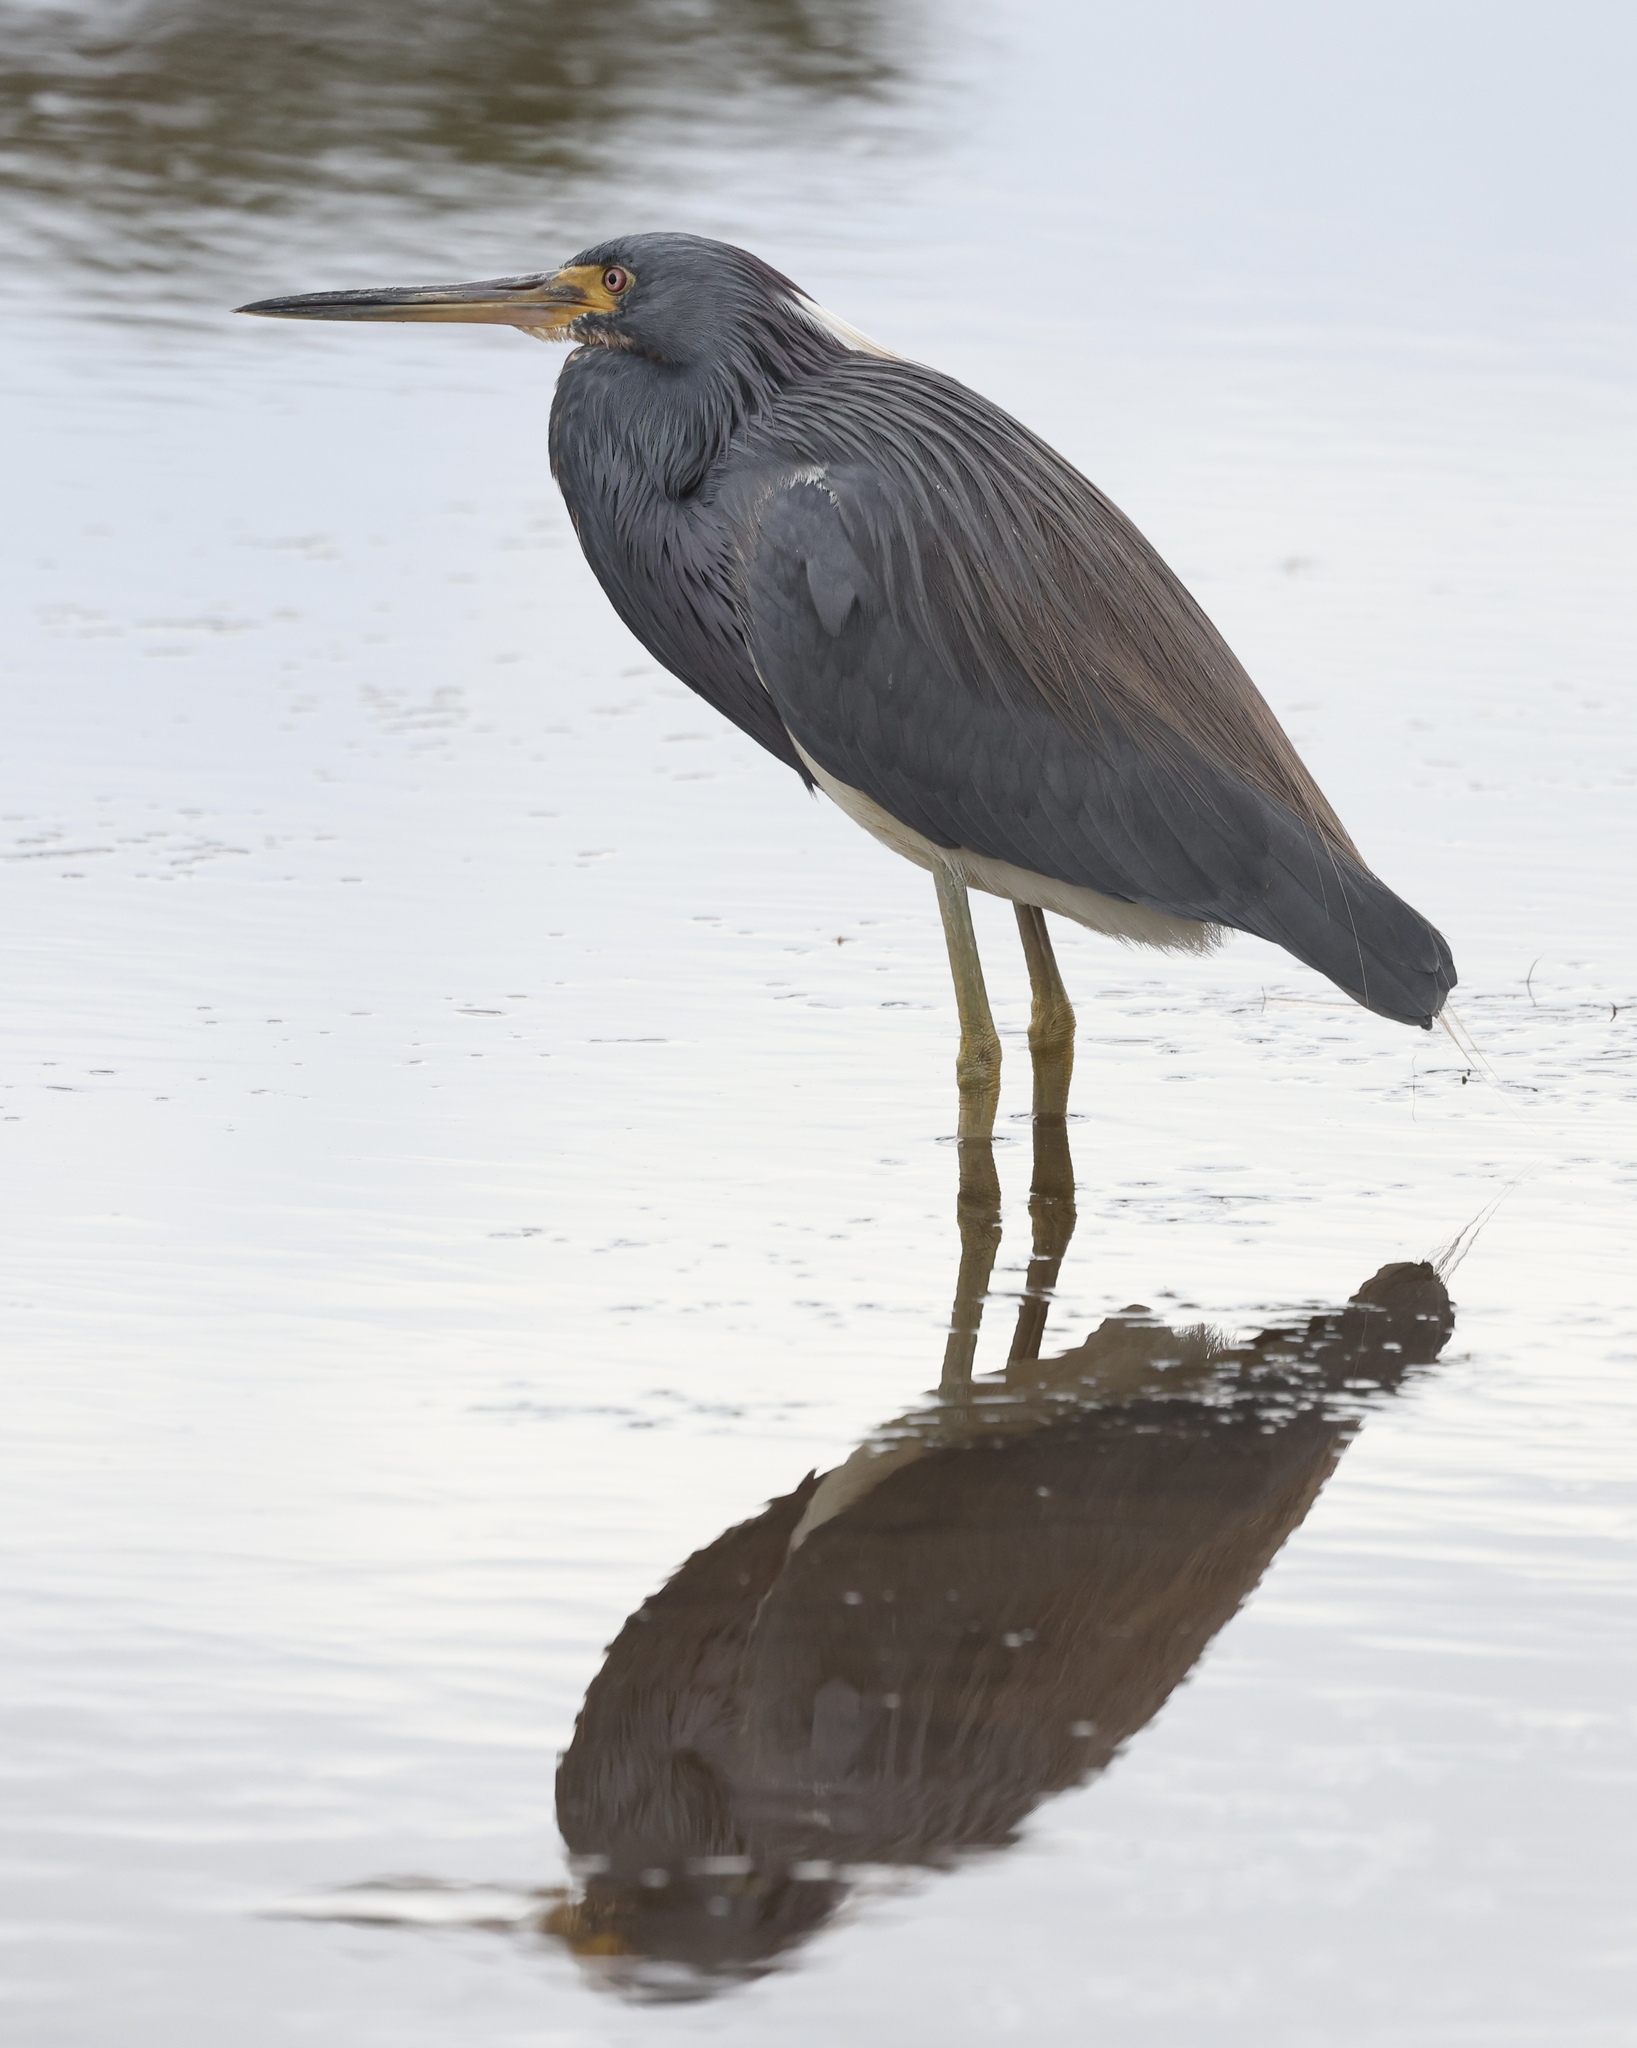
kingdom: Animalia
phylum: Chordata
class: Aves
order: Pelecaniformes
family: Ardeidae
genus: Egretta
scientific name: Egretta tricolor
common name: Tricolored heron
